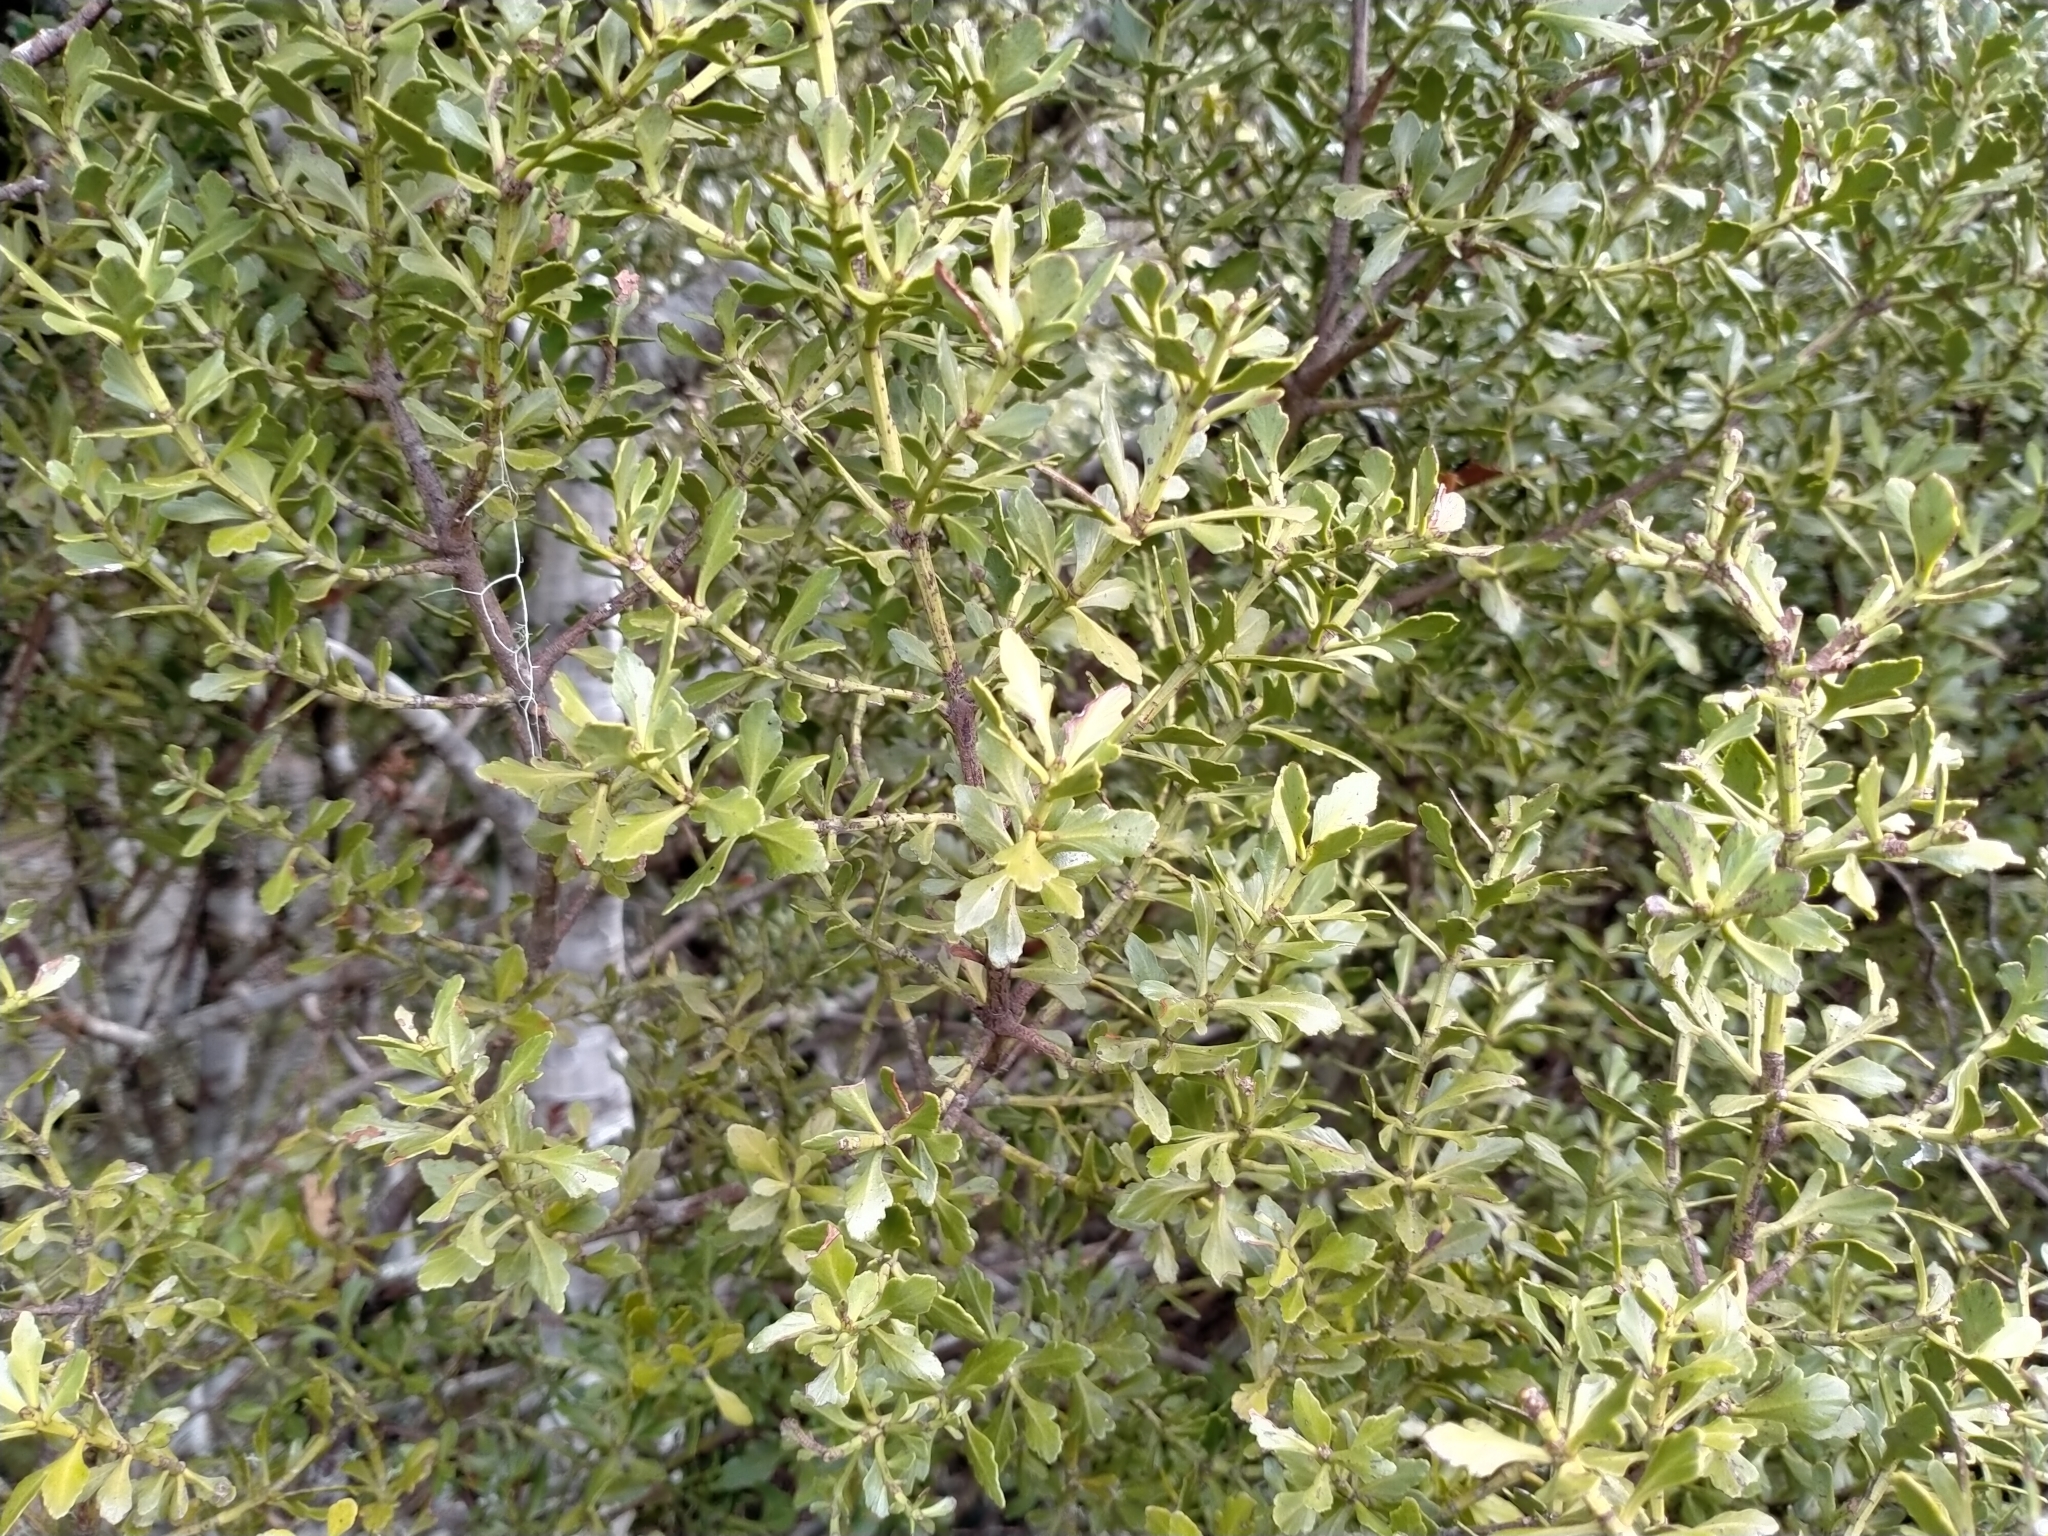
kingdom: Plantae
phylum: Tracheophyta
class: Pinopsida
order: Pinales
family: Phyllocladaceae
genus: Phyllocladus
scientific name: Phyllocladus trichomanoides
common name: Celery pine
